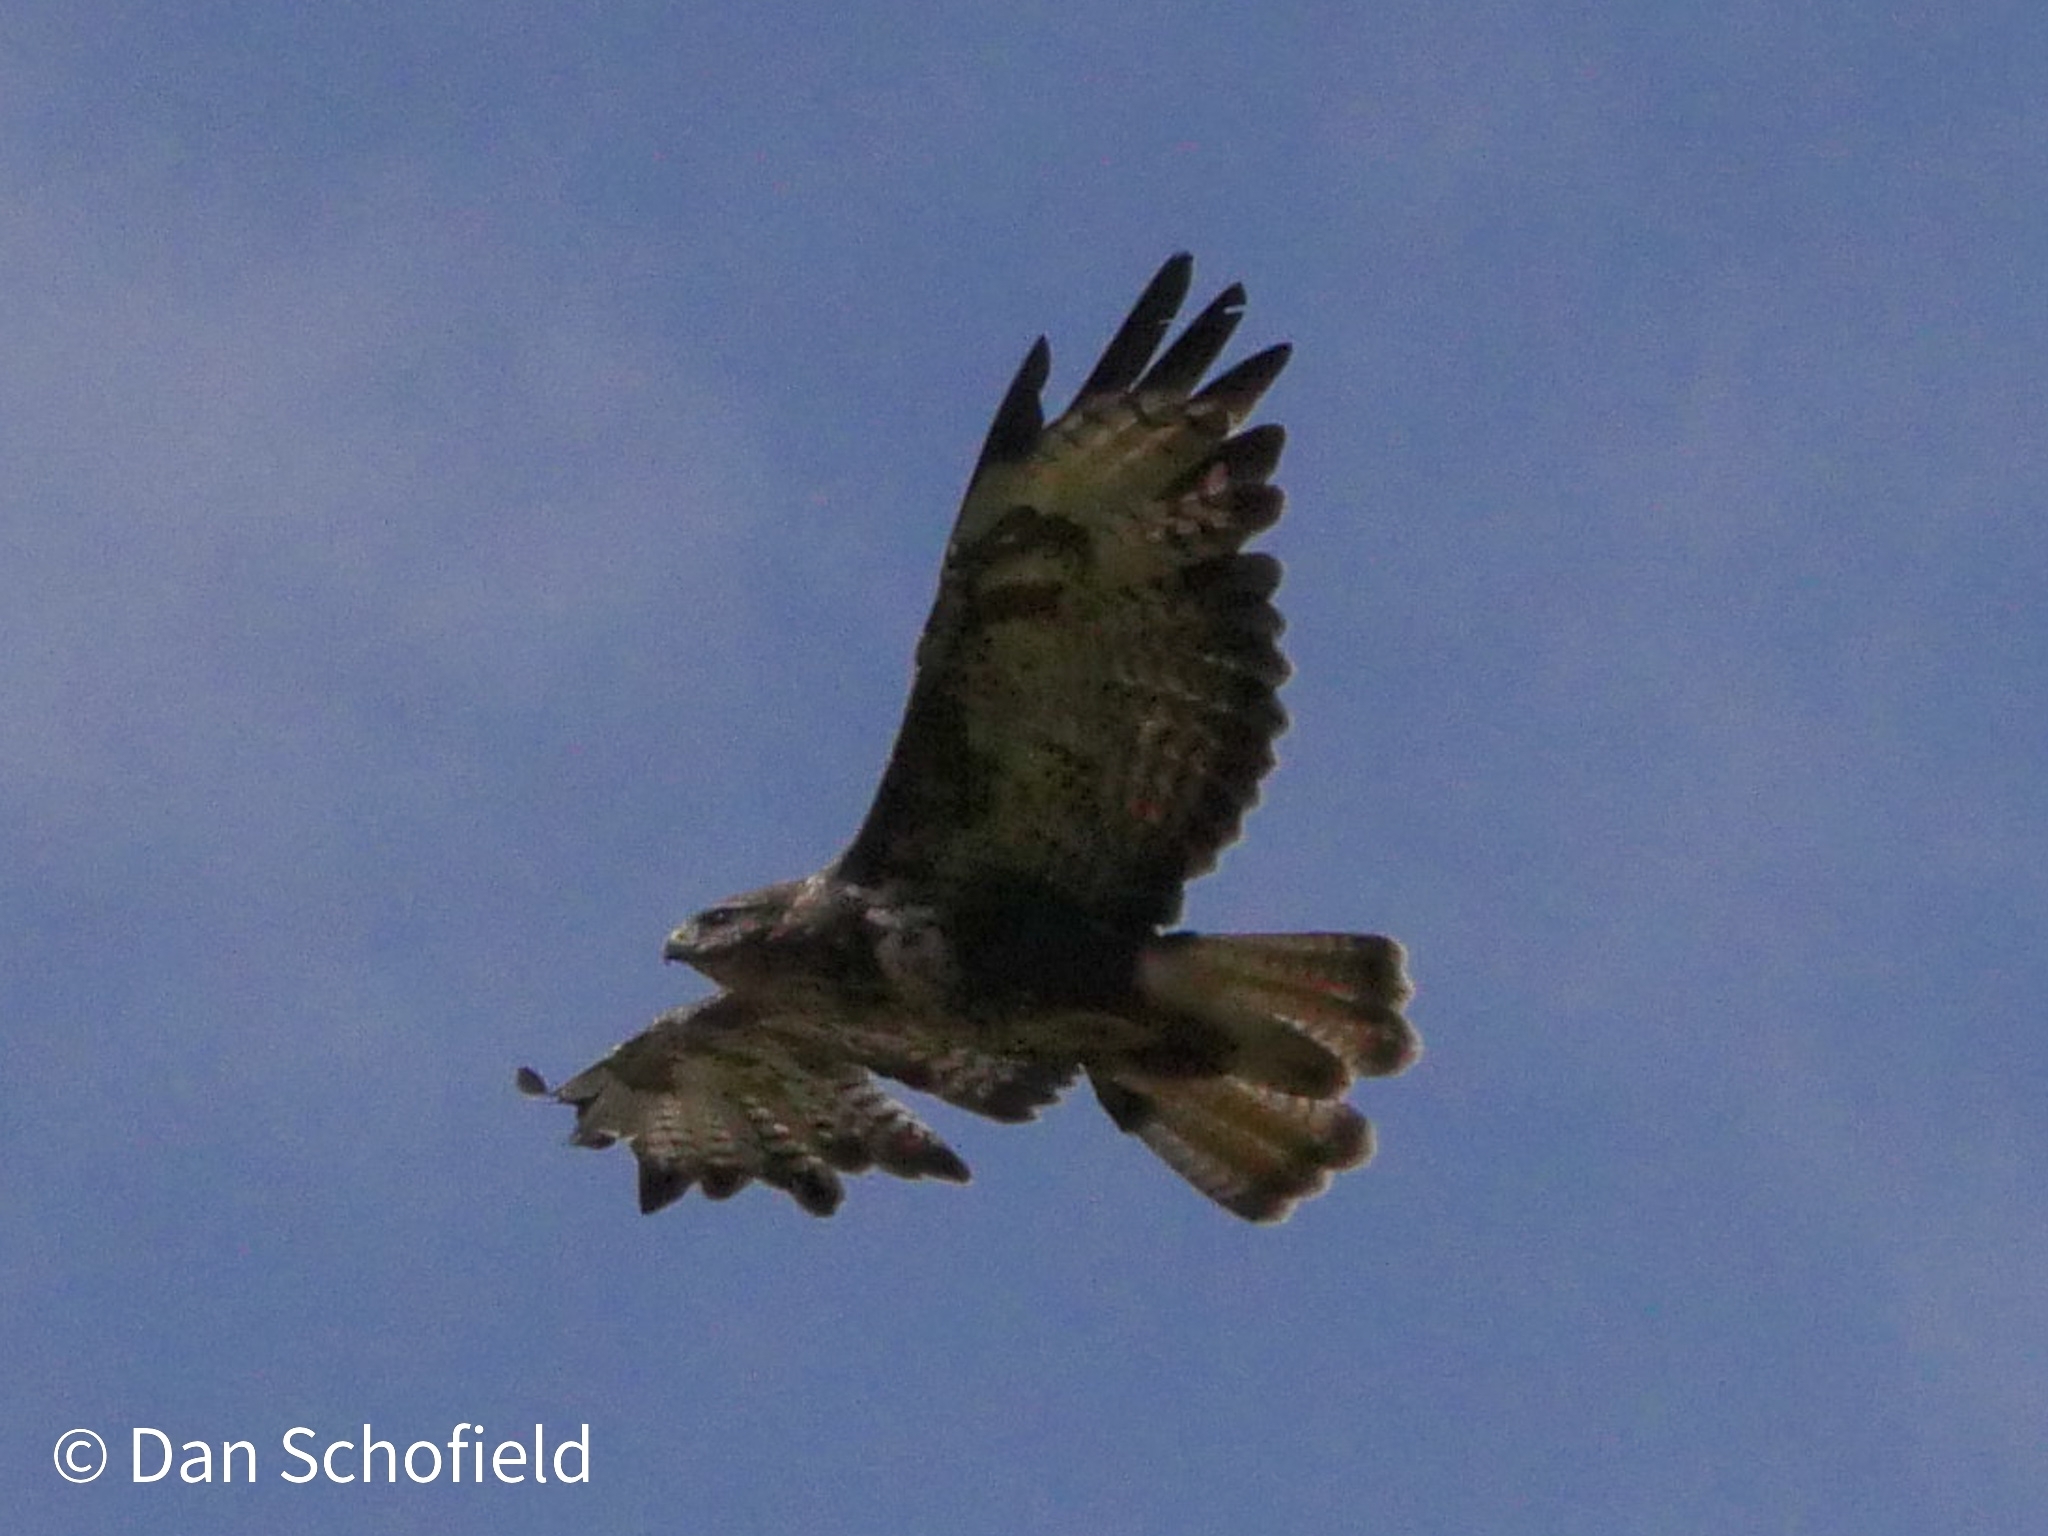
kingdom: Animalia
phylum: Chordata
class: Aves
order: Accipitriformes
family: Accipitridae
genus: Buteo
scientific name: Buteo buteo
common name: Common buzzard
